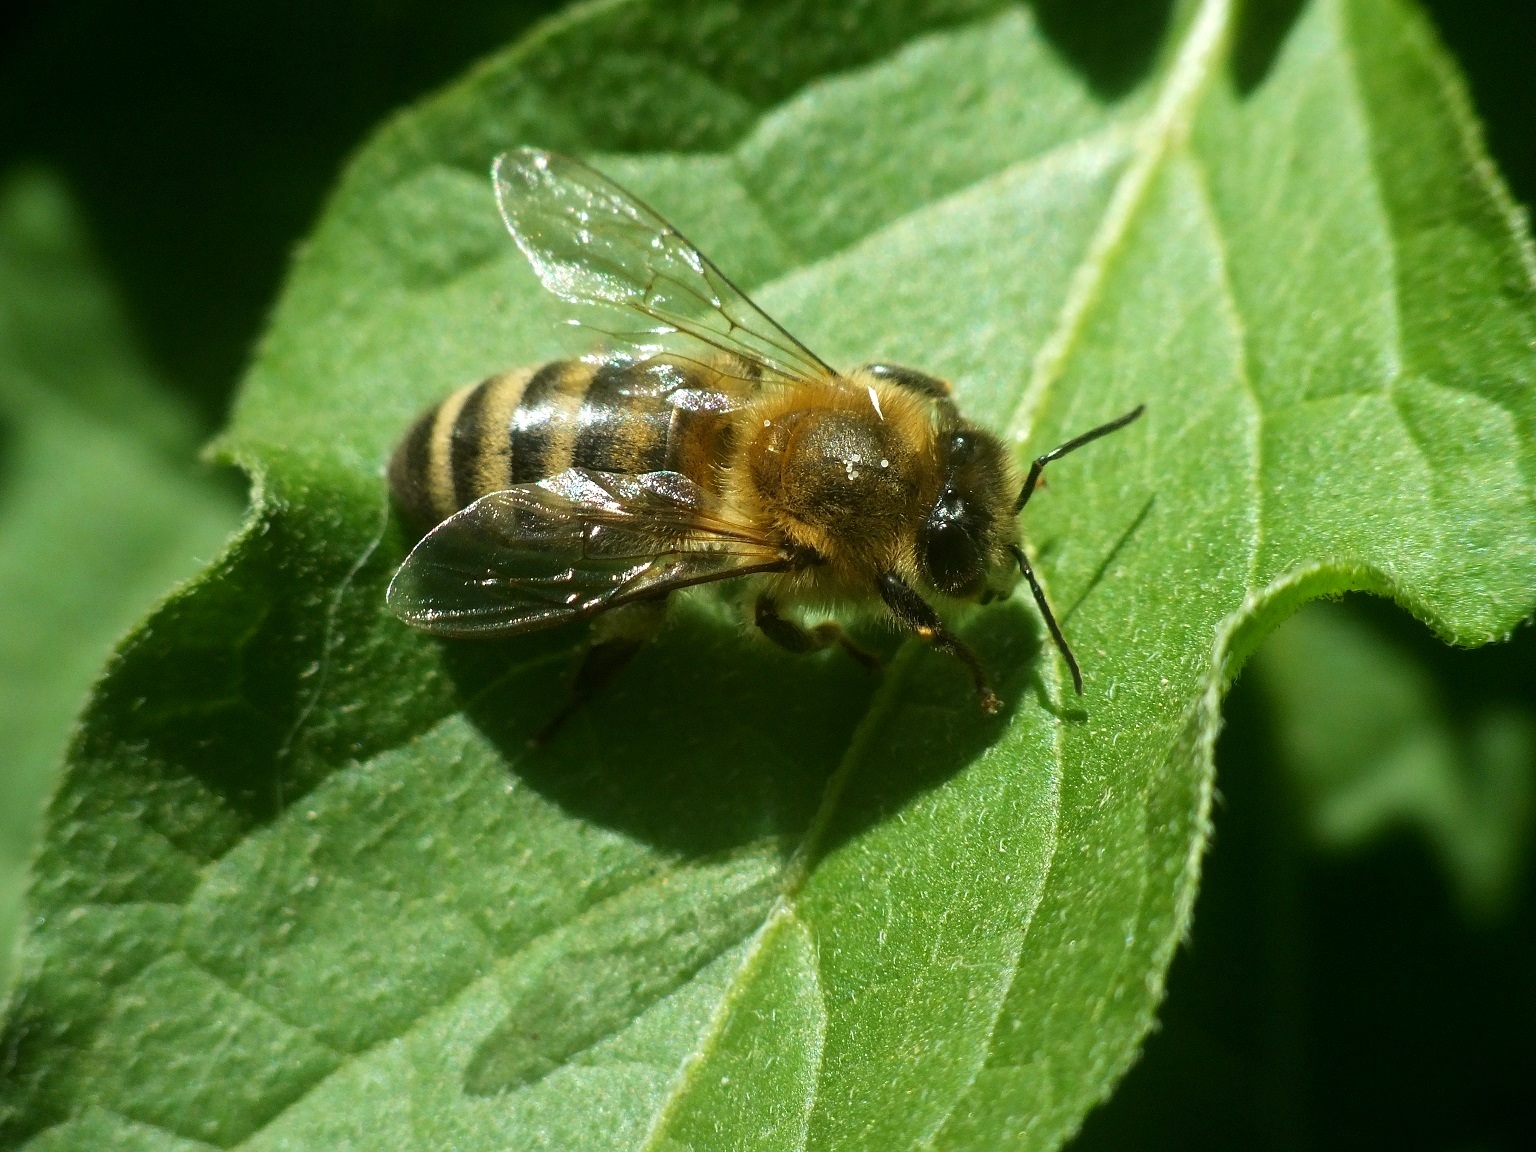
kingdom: Animalia
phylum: Arthropoda
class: Insecta
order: Hymenoptera
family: Apidae
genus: Apis
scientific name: Apis mellifera
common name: Honey bee
